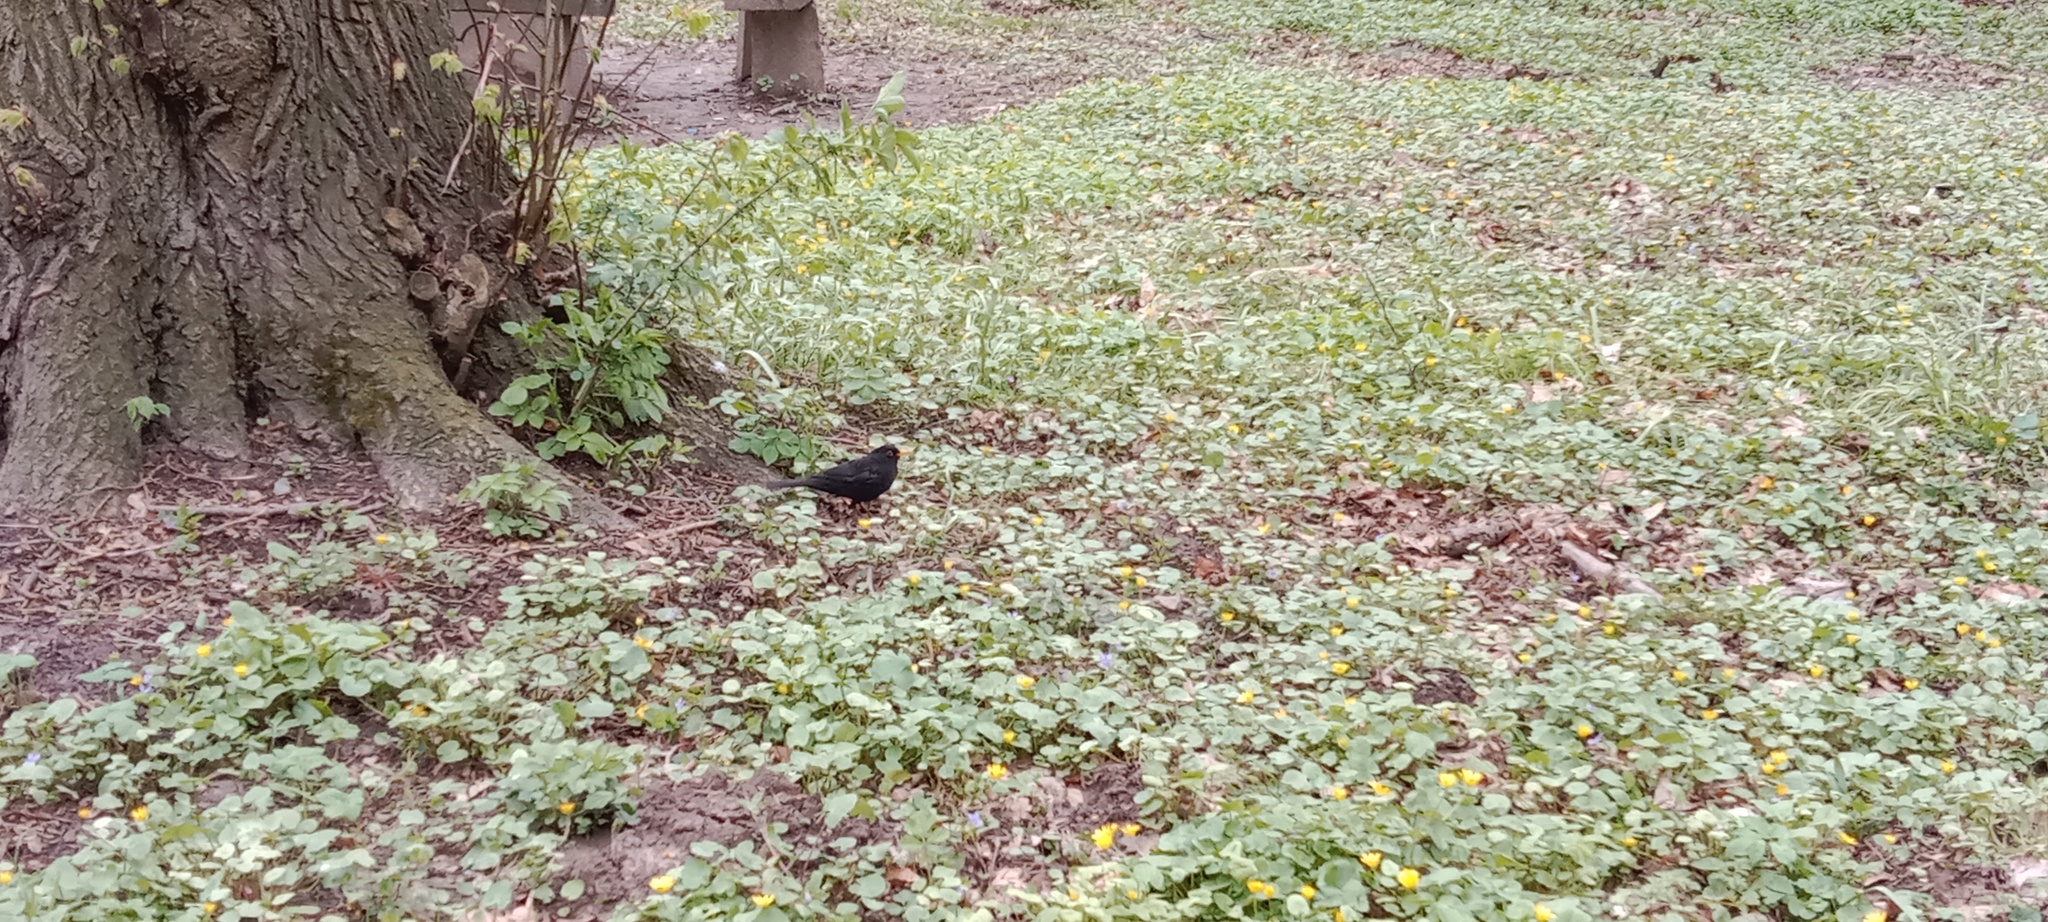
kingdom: Animalia
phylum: Chordata
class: Aves
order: Passeriformes
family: Turdidae
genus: Turdus
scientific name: Turdus merula
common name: Common blackbird
